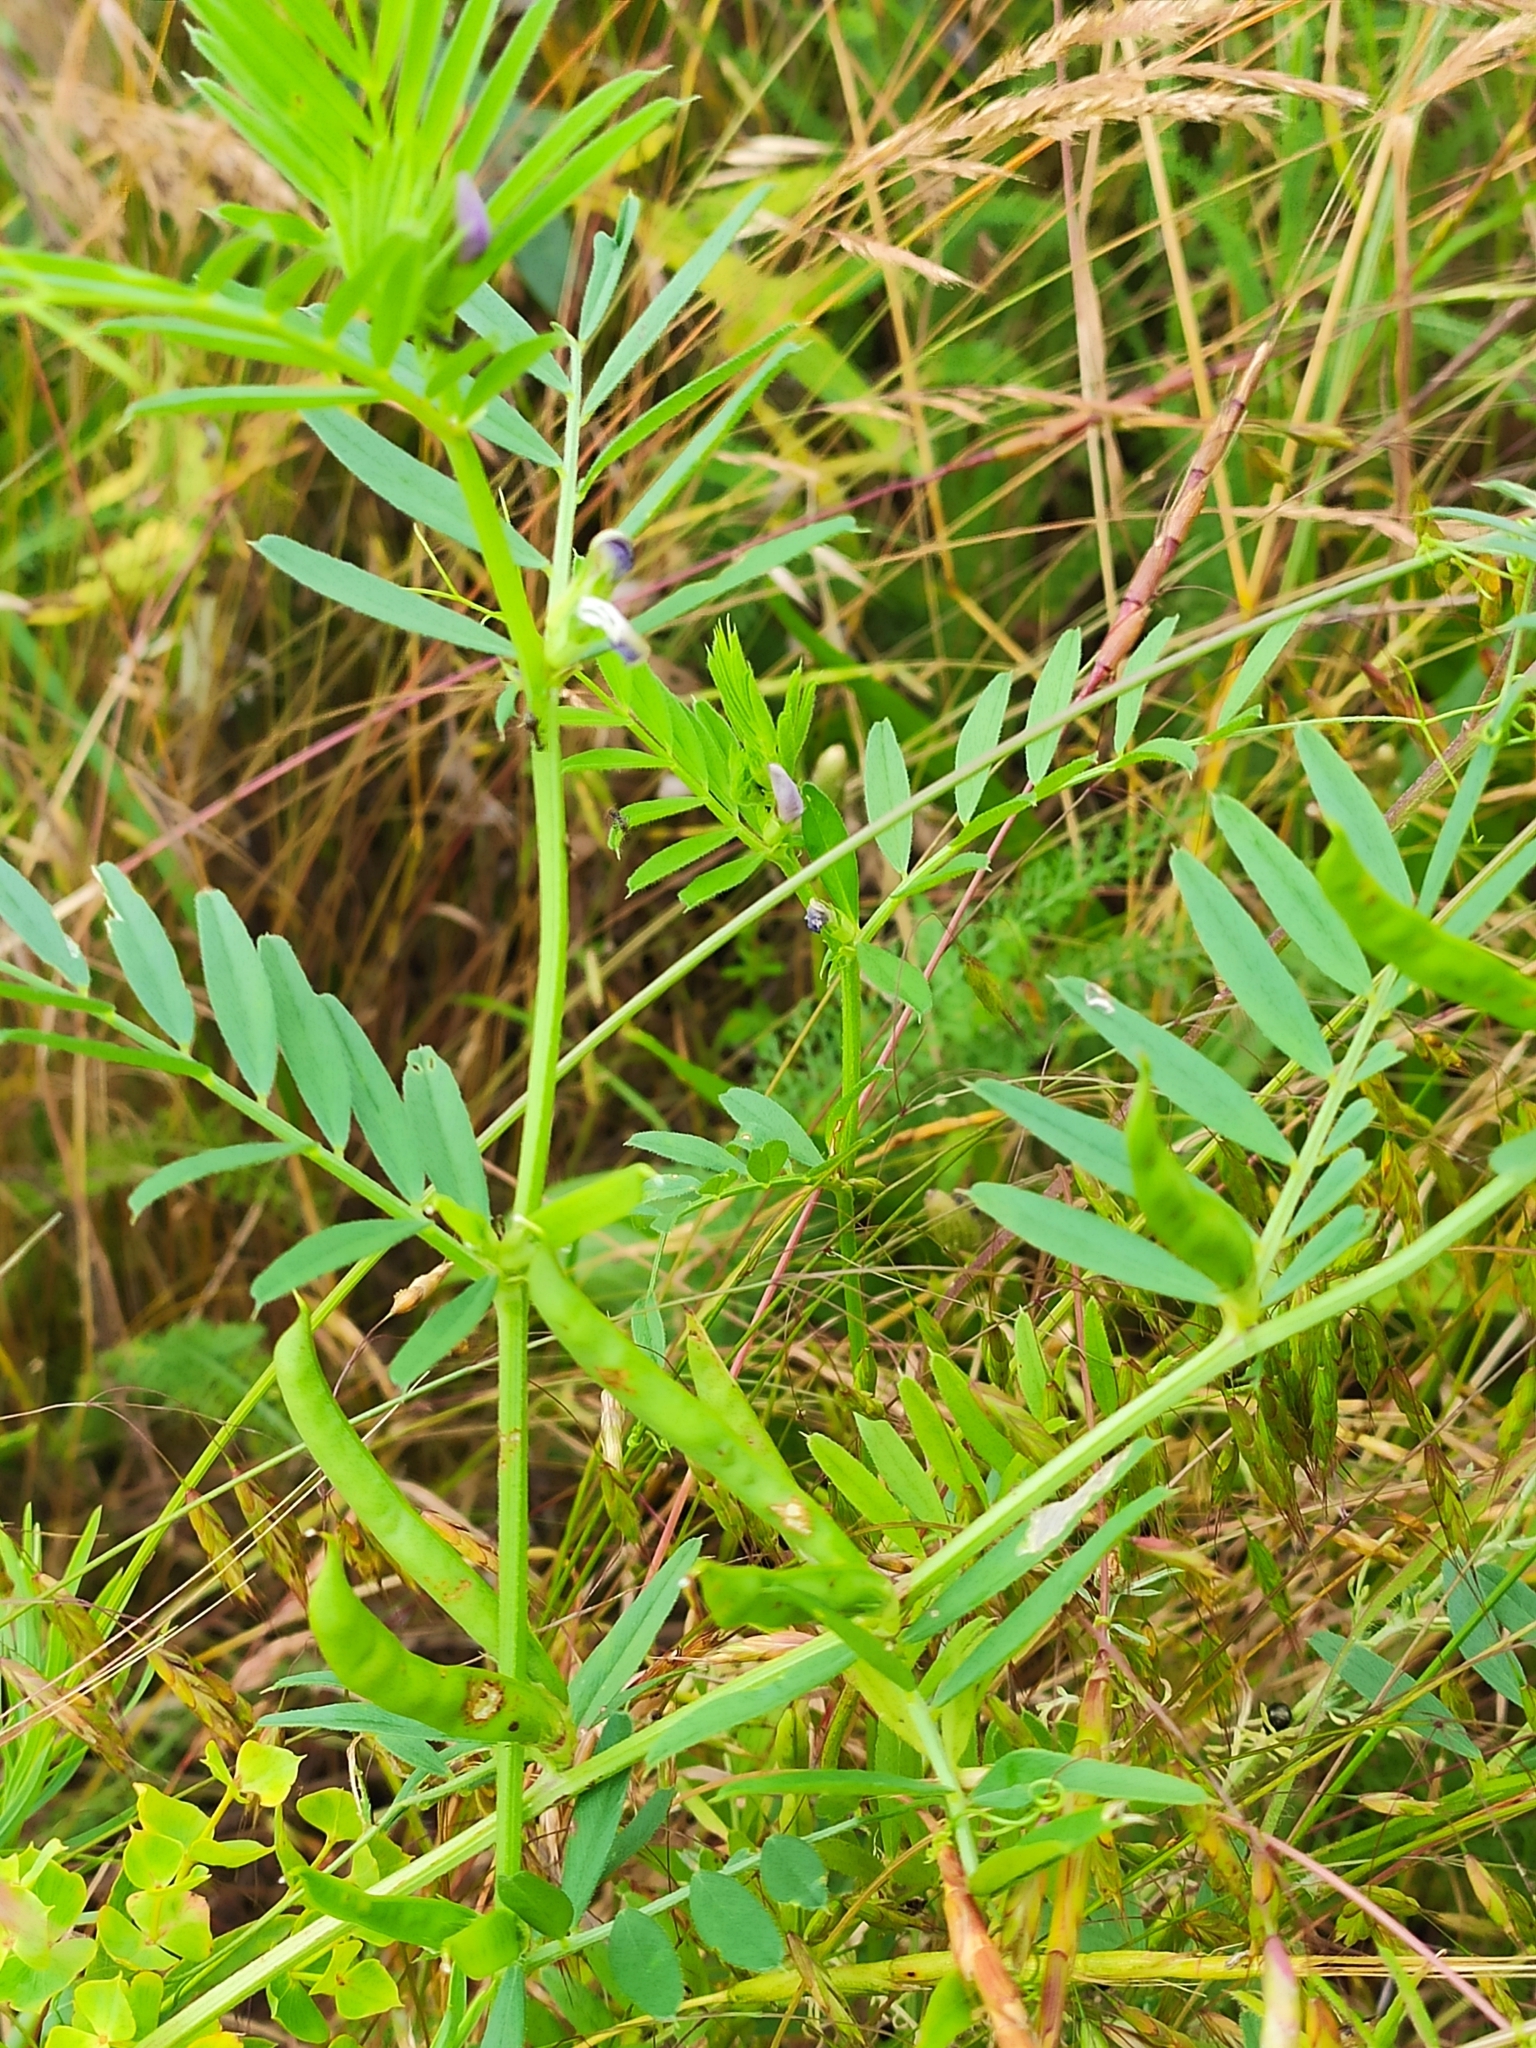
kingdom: Plantae
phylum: Tracheophyta
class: Magnoliopsida
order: Fabales
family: Fabaceae
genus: Vicia
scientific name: Vicia sativa
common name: Garden vetch
